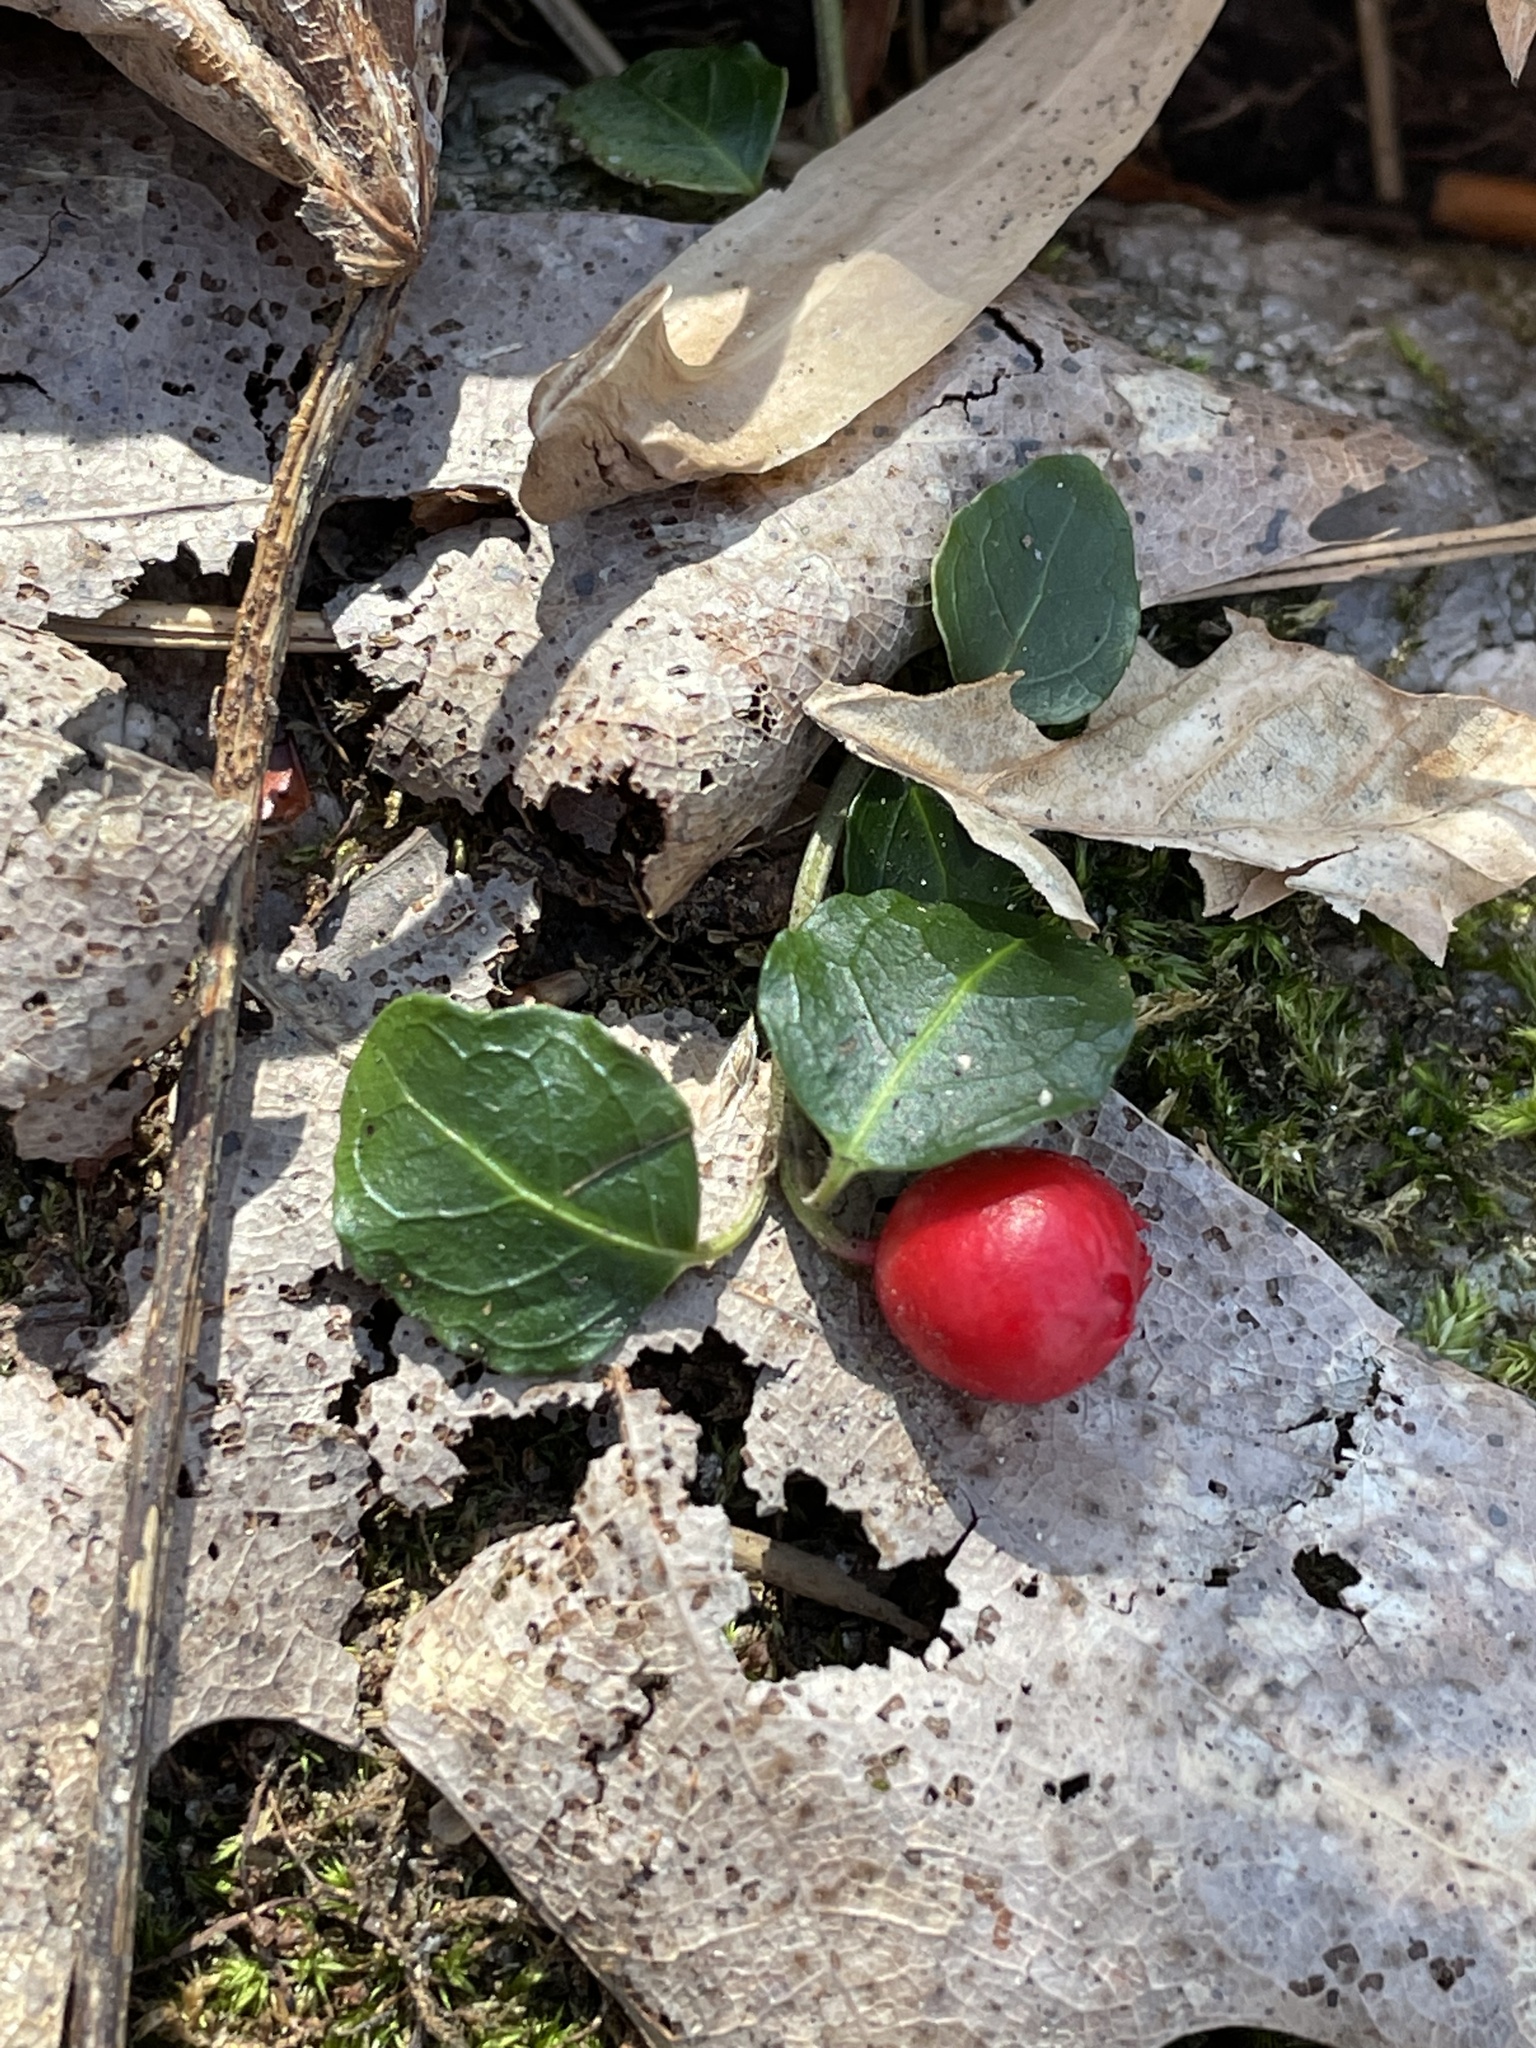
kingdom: Plantae
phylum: Tracheophyta
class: Magnoliopsida
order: Gentianales
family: Rubiaceae
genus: Mitchella
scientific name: Mitchella repens
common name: Partridge-berry
